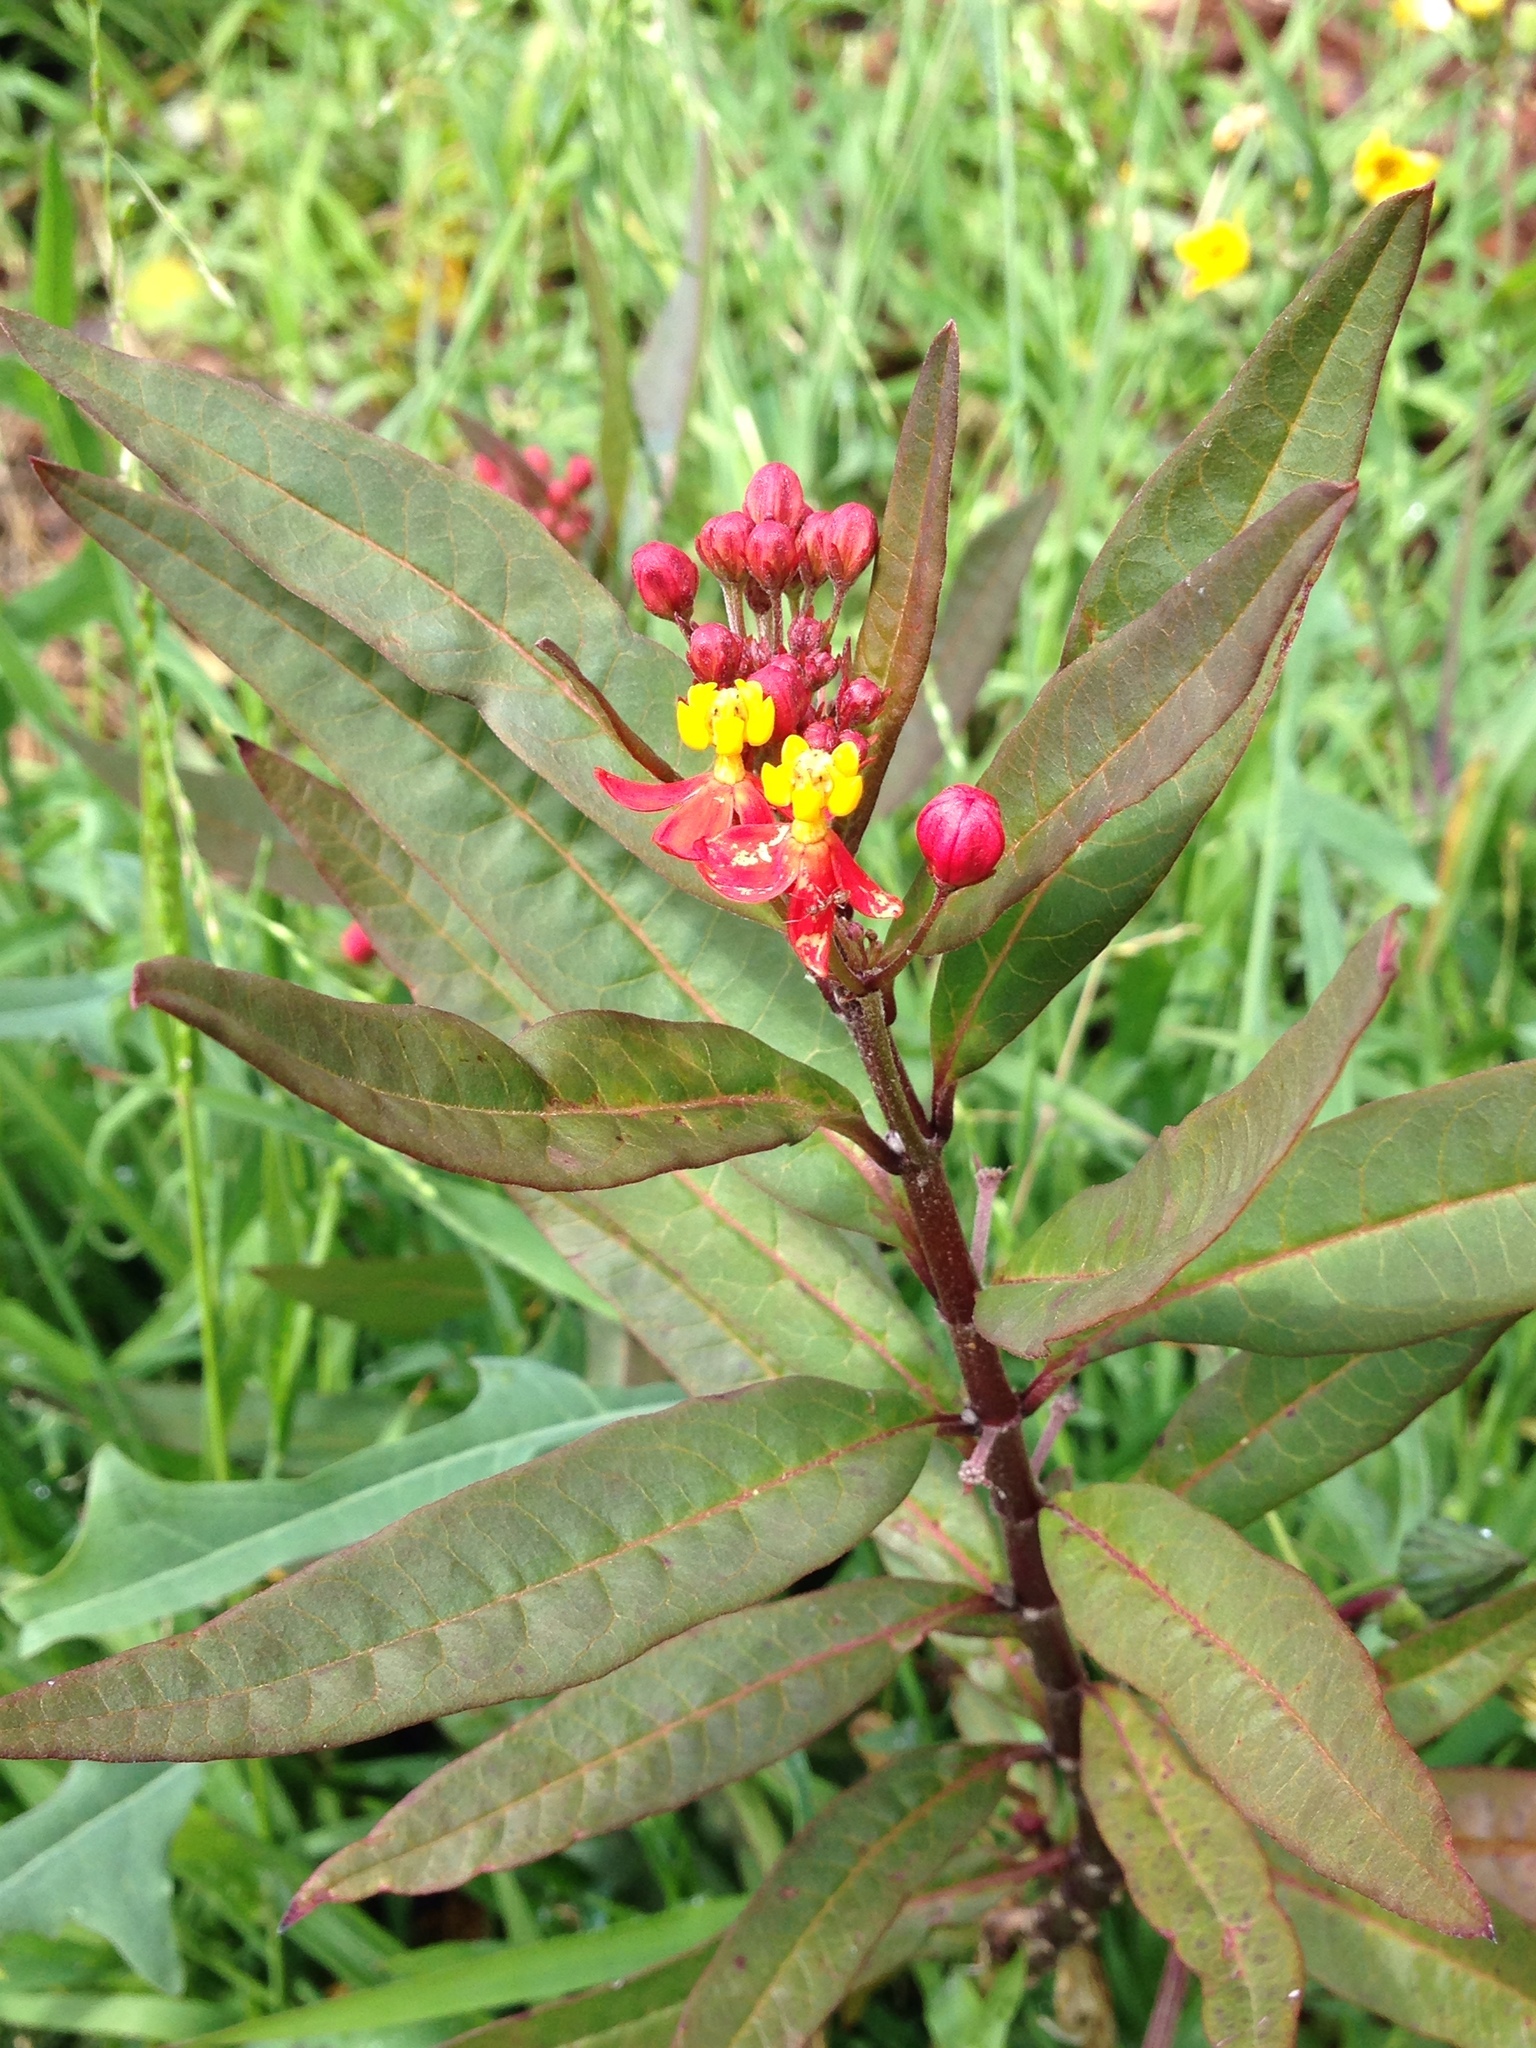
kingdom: Plantae
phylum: Tracheophyta
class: Magnoliopsida
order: Gentianales
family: Apocynaceae
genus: Asclepias
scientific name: Asclepias curassavica
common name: Bloodflower
